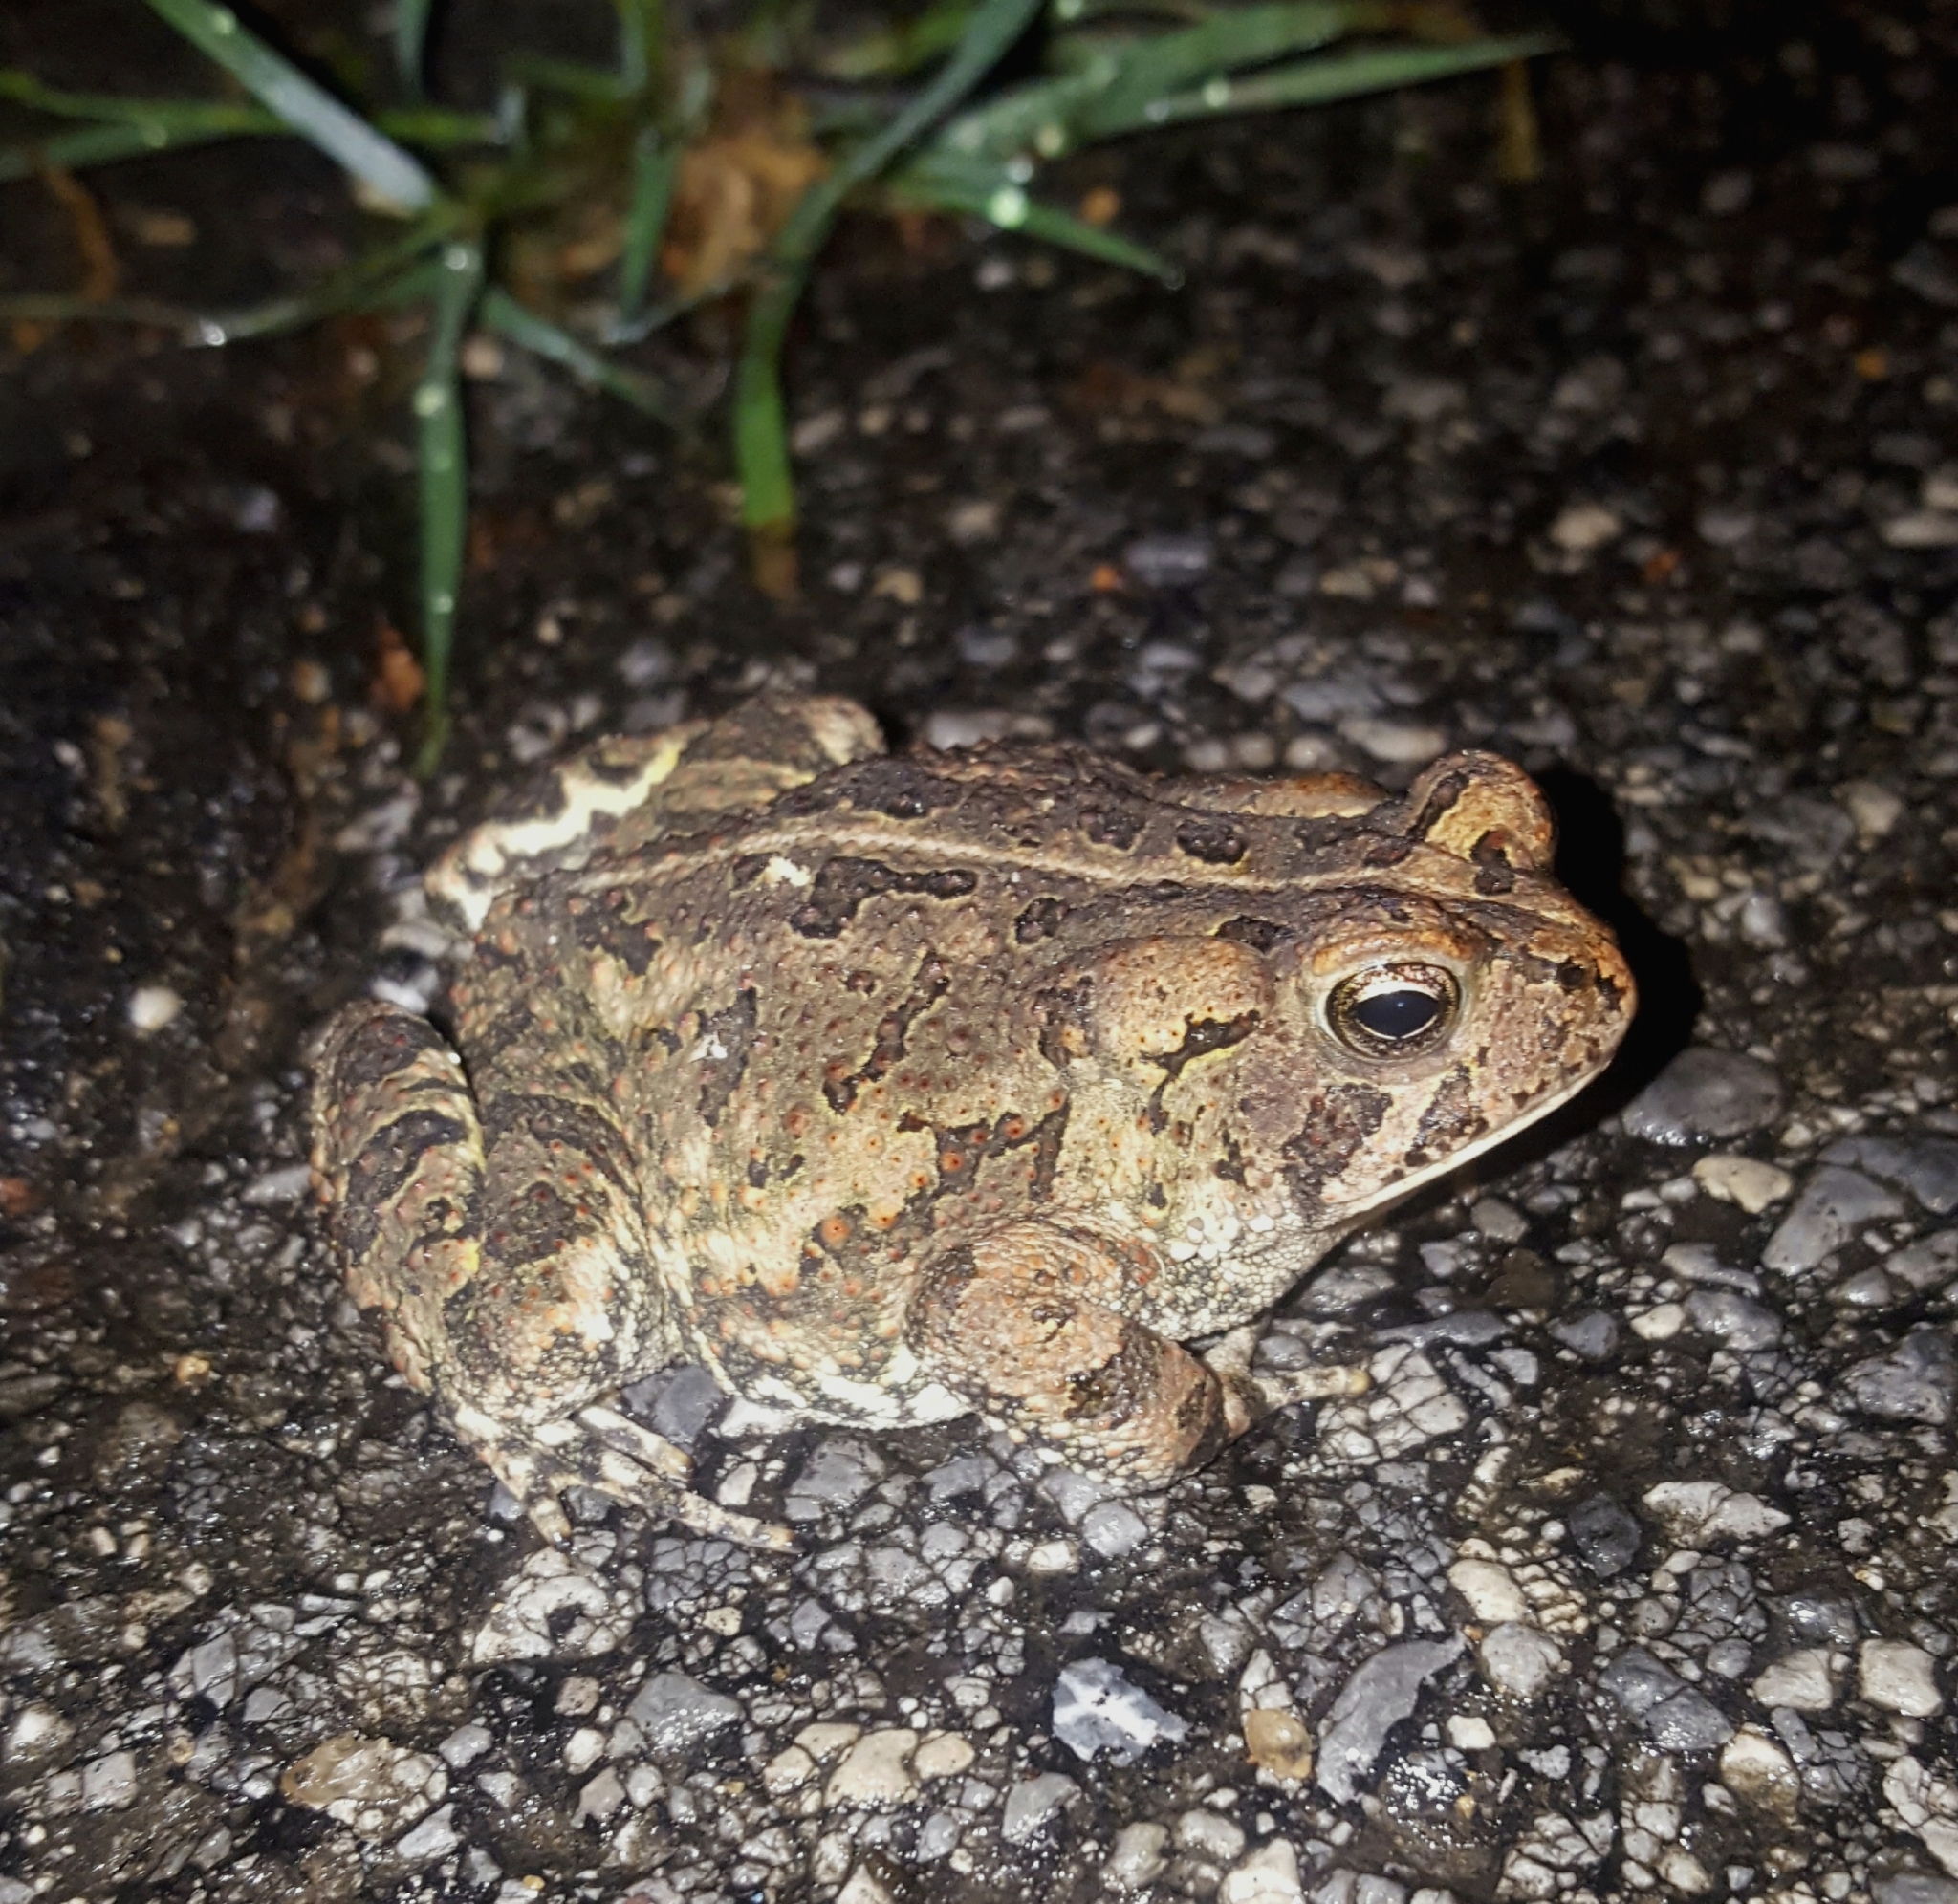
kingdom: Animalia
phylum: Chordata
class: Amphibia
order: Anura
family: Bufonidae
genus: Anaxyrus
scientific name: Anaxyrus fowleri
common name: Fowler's toad
